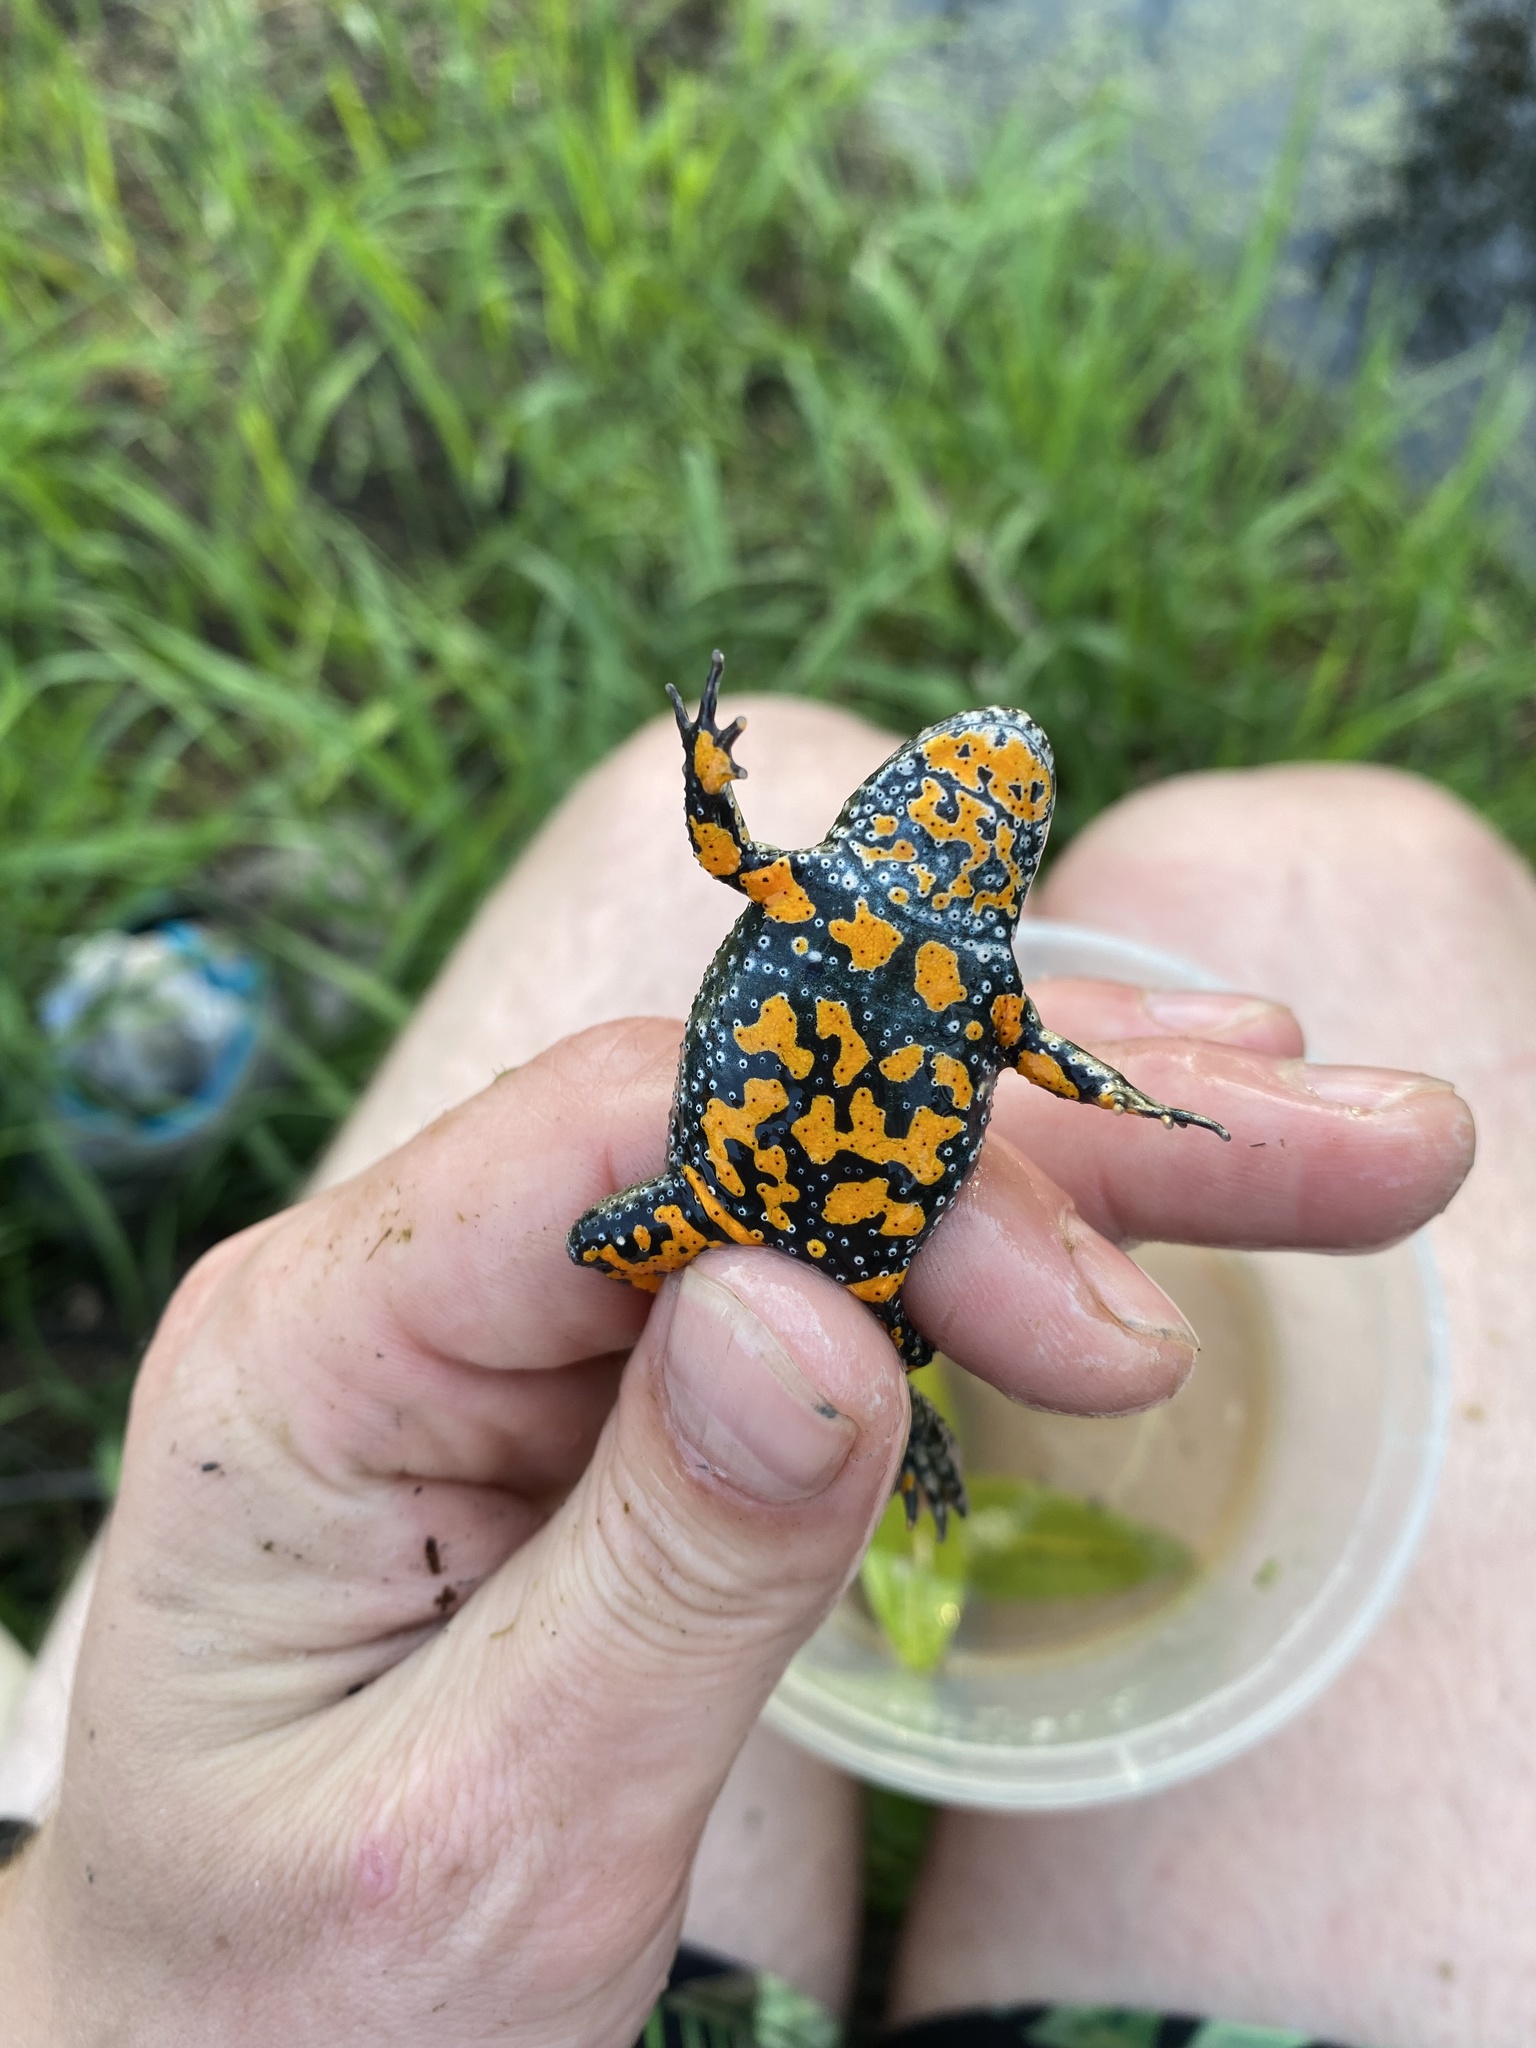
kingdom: Animalia
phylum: Chordata
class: Amphibia
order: Anura
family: Bombinatoridae
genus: Bombina
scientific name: Bombina bombina
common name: Fire-bellied toad
